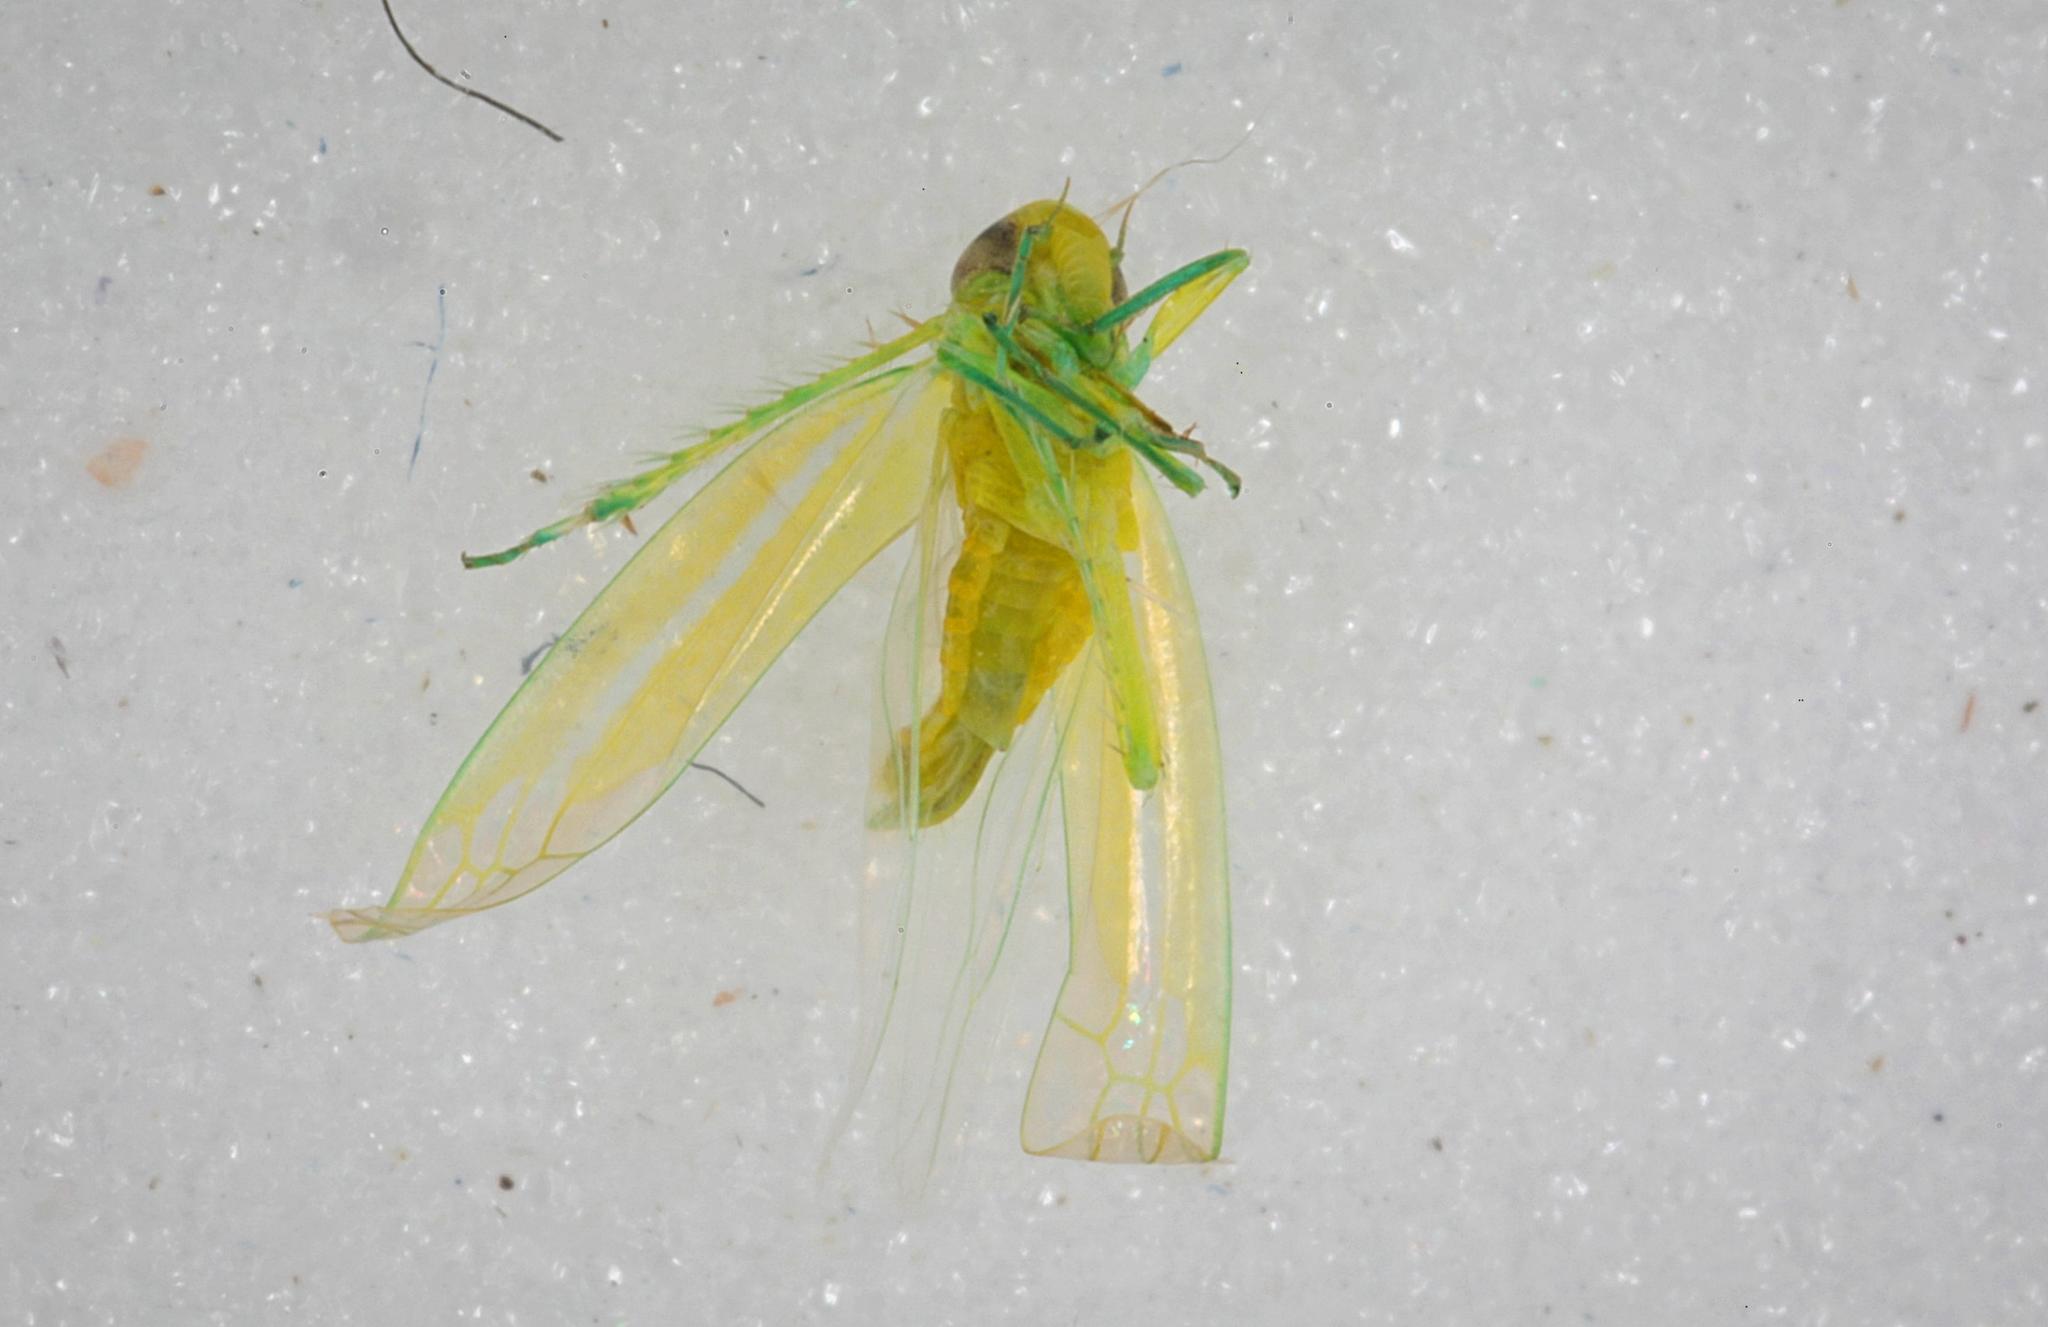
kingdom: Animalia
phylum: Arthropoda
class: Insecta
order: Hemiptera
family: Cicadellidae
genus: Hebata
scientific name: Hebata vitis
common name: The smaller green leafhopper
